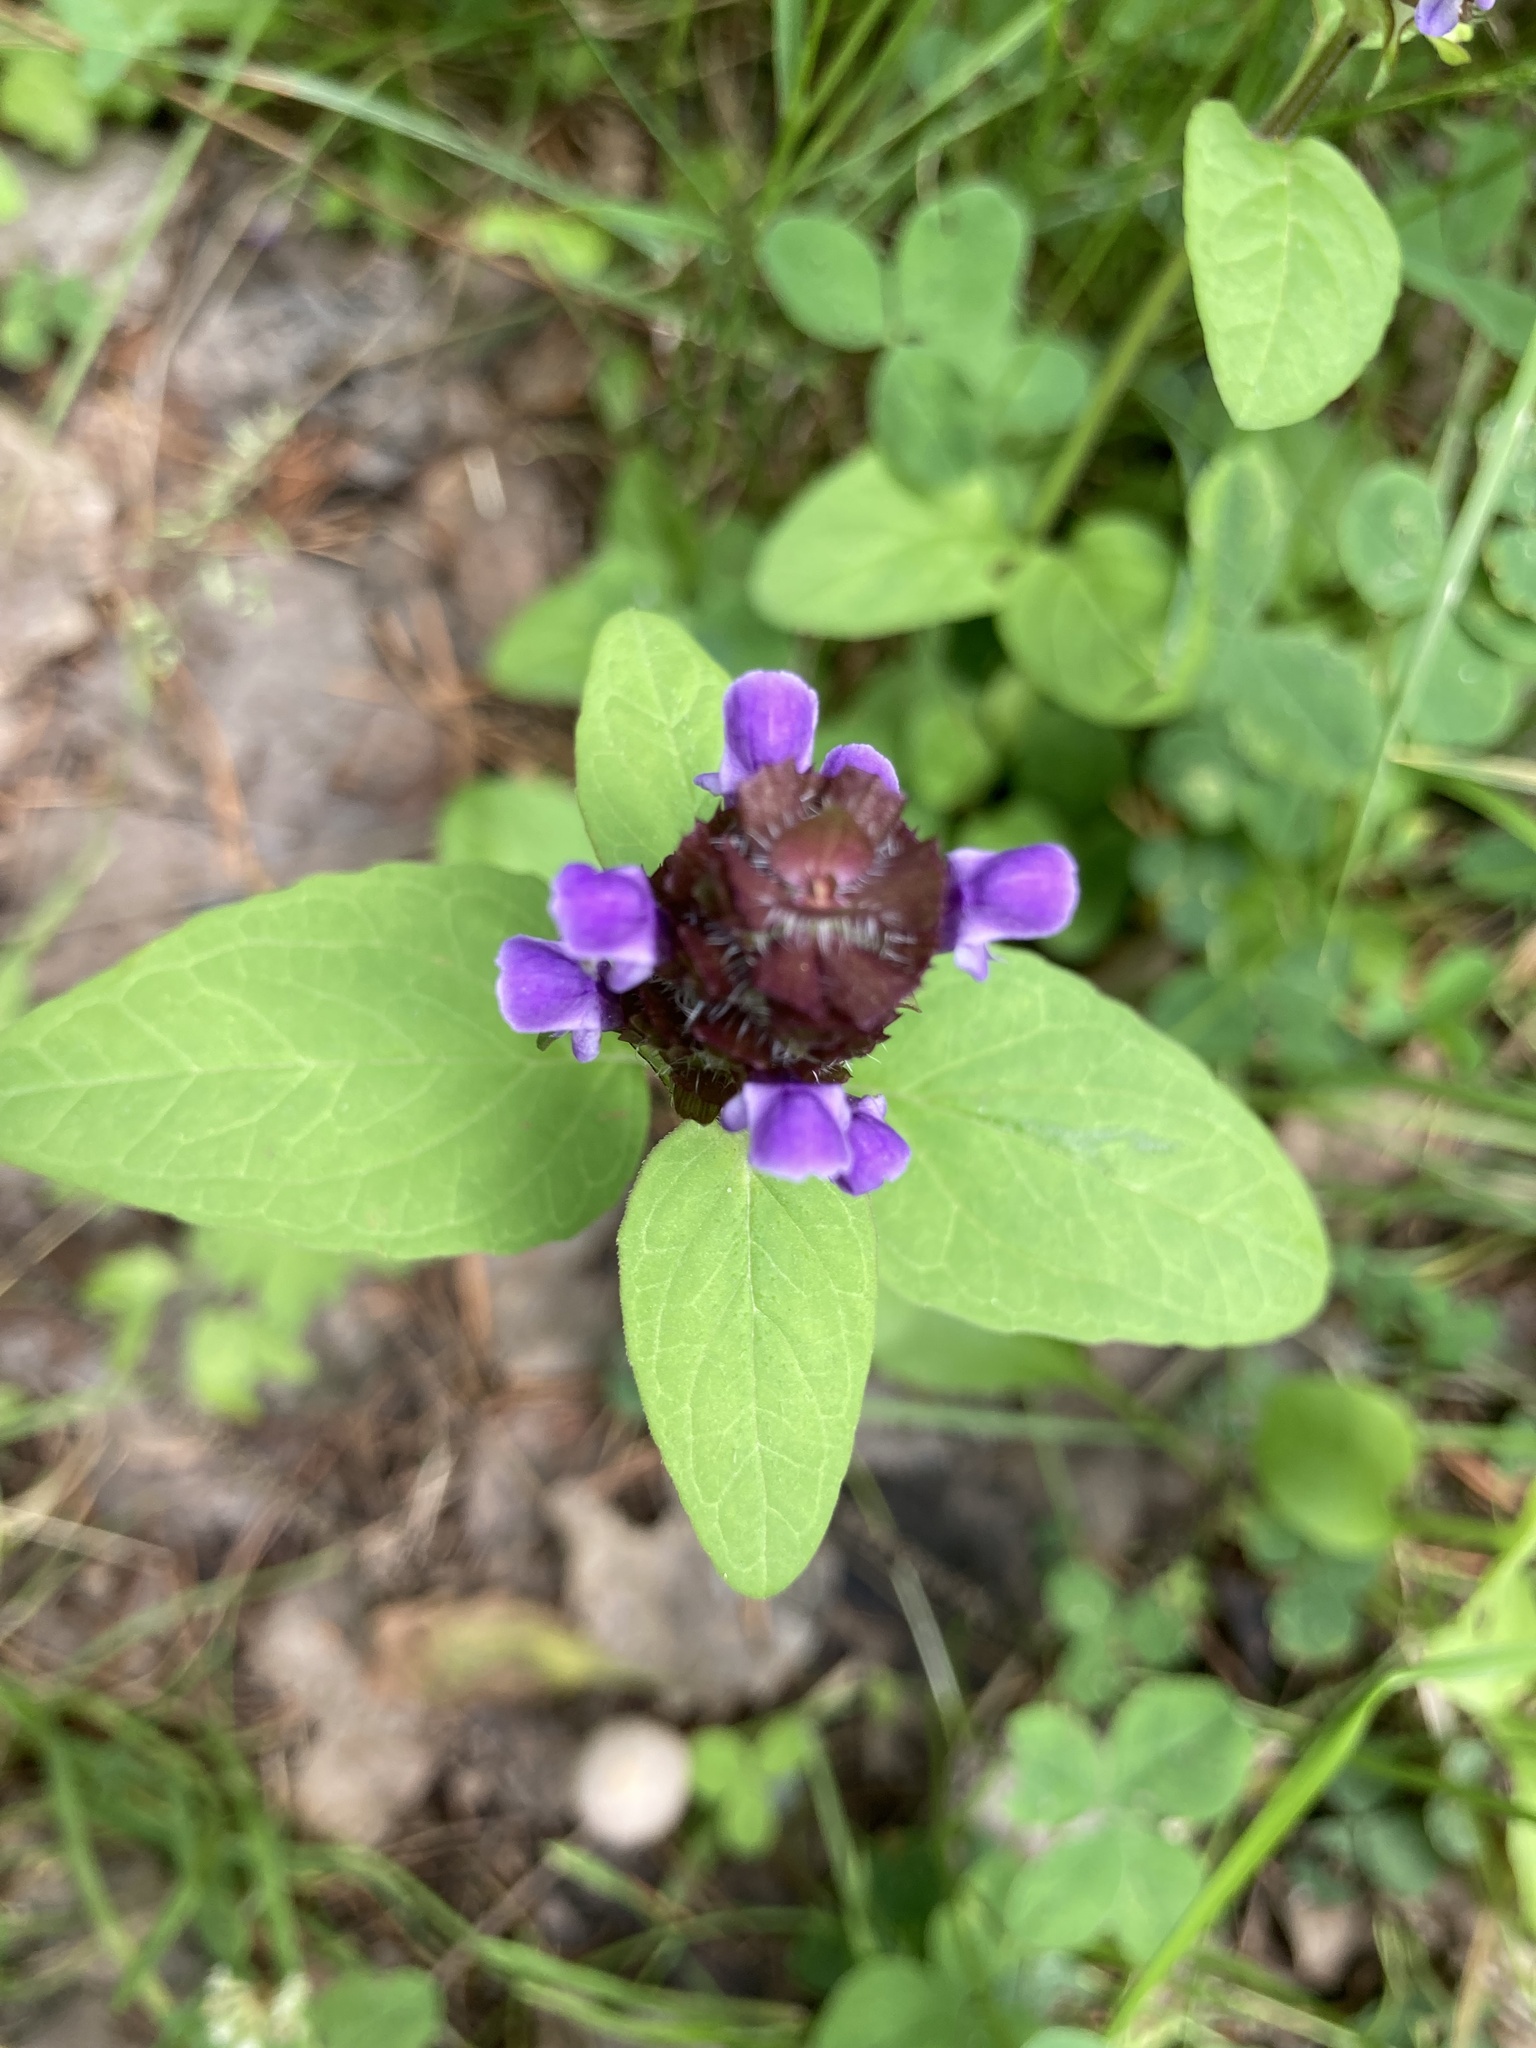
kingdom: Plantae
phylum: Tracheophyta
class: Magnoliopsida
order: Lamiales
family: Lamiaceae
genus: Prunella
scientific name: Prunella vulgaris
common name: Heal-all
